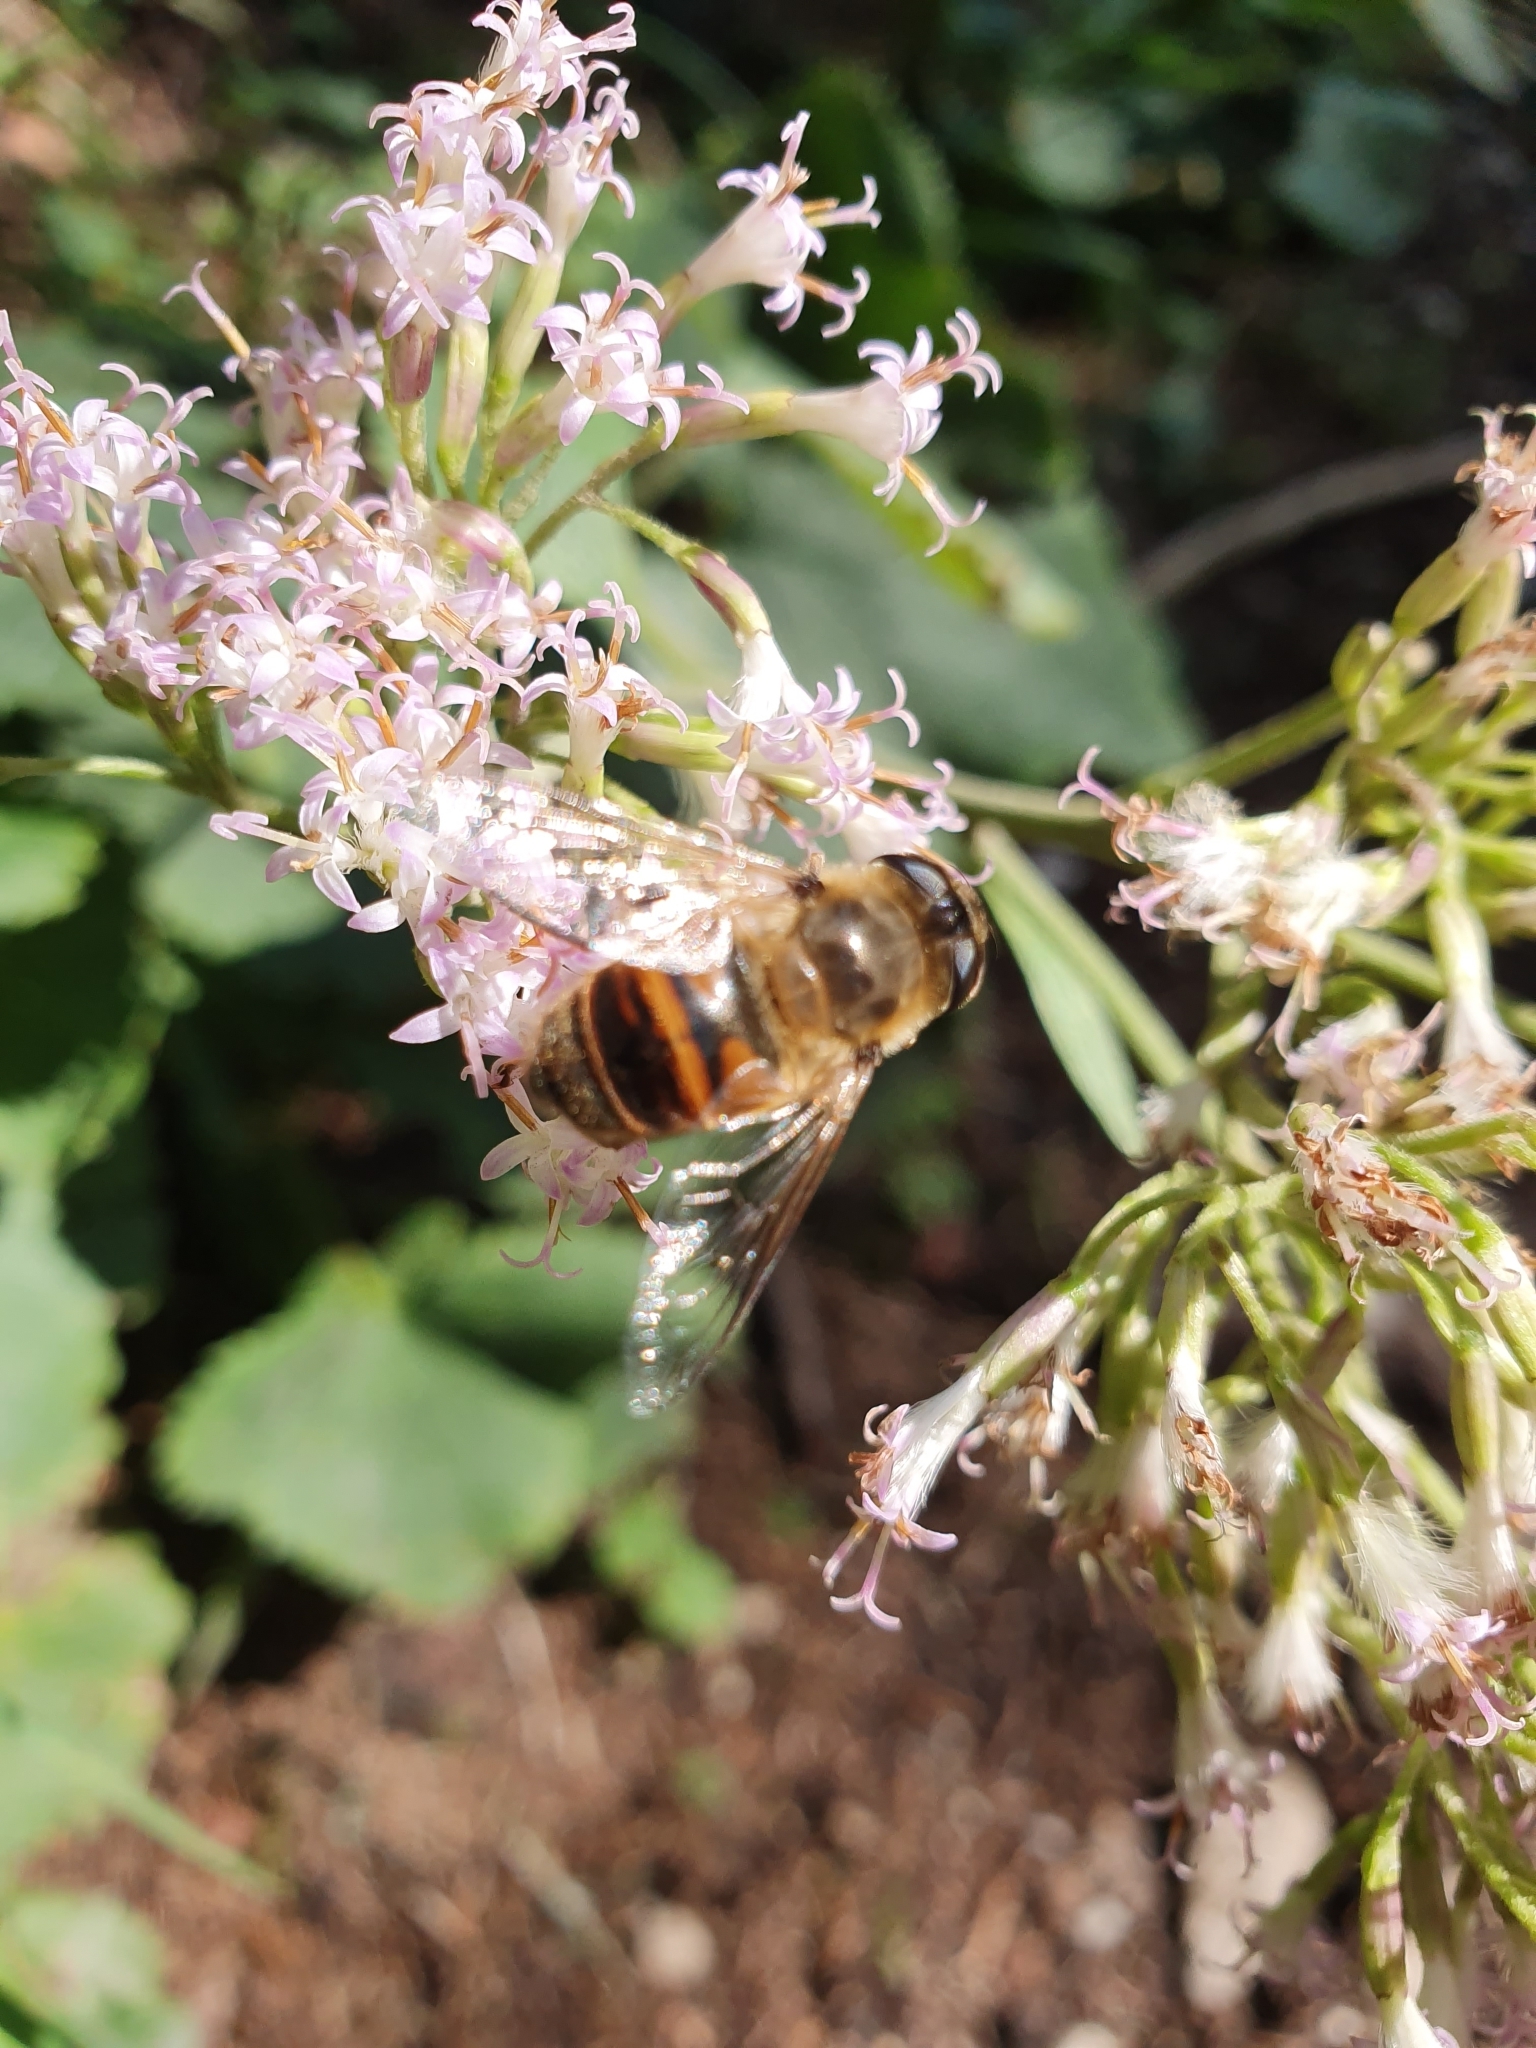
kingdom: Animalia
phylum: Arthropoda
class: Insecta
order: Diptera
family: Syrphidae
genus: Eristalis
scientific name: Eristalis tenax
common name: Drone fly
